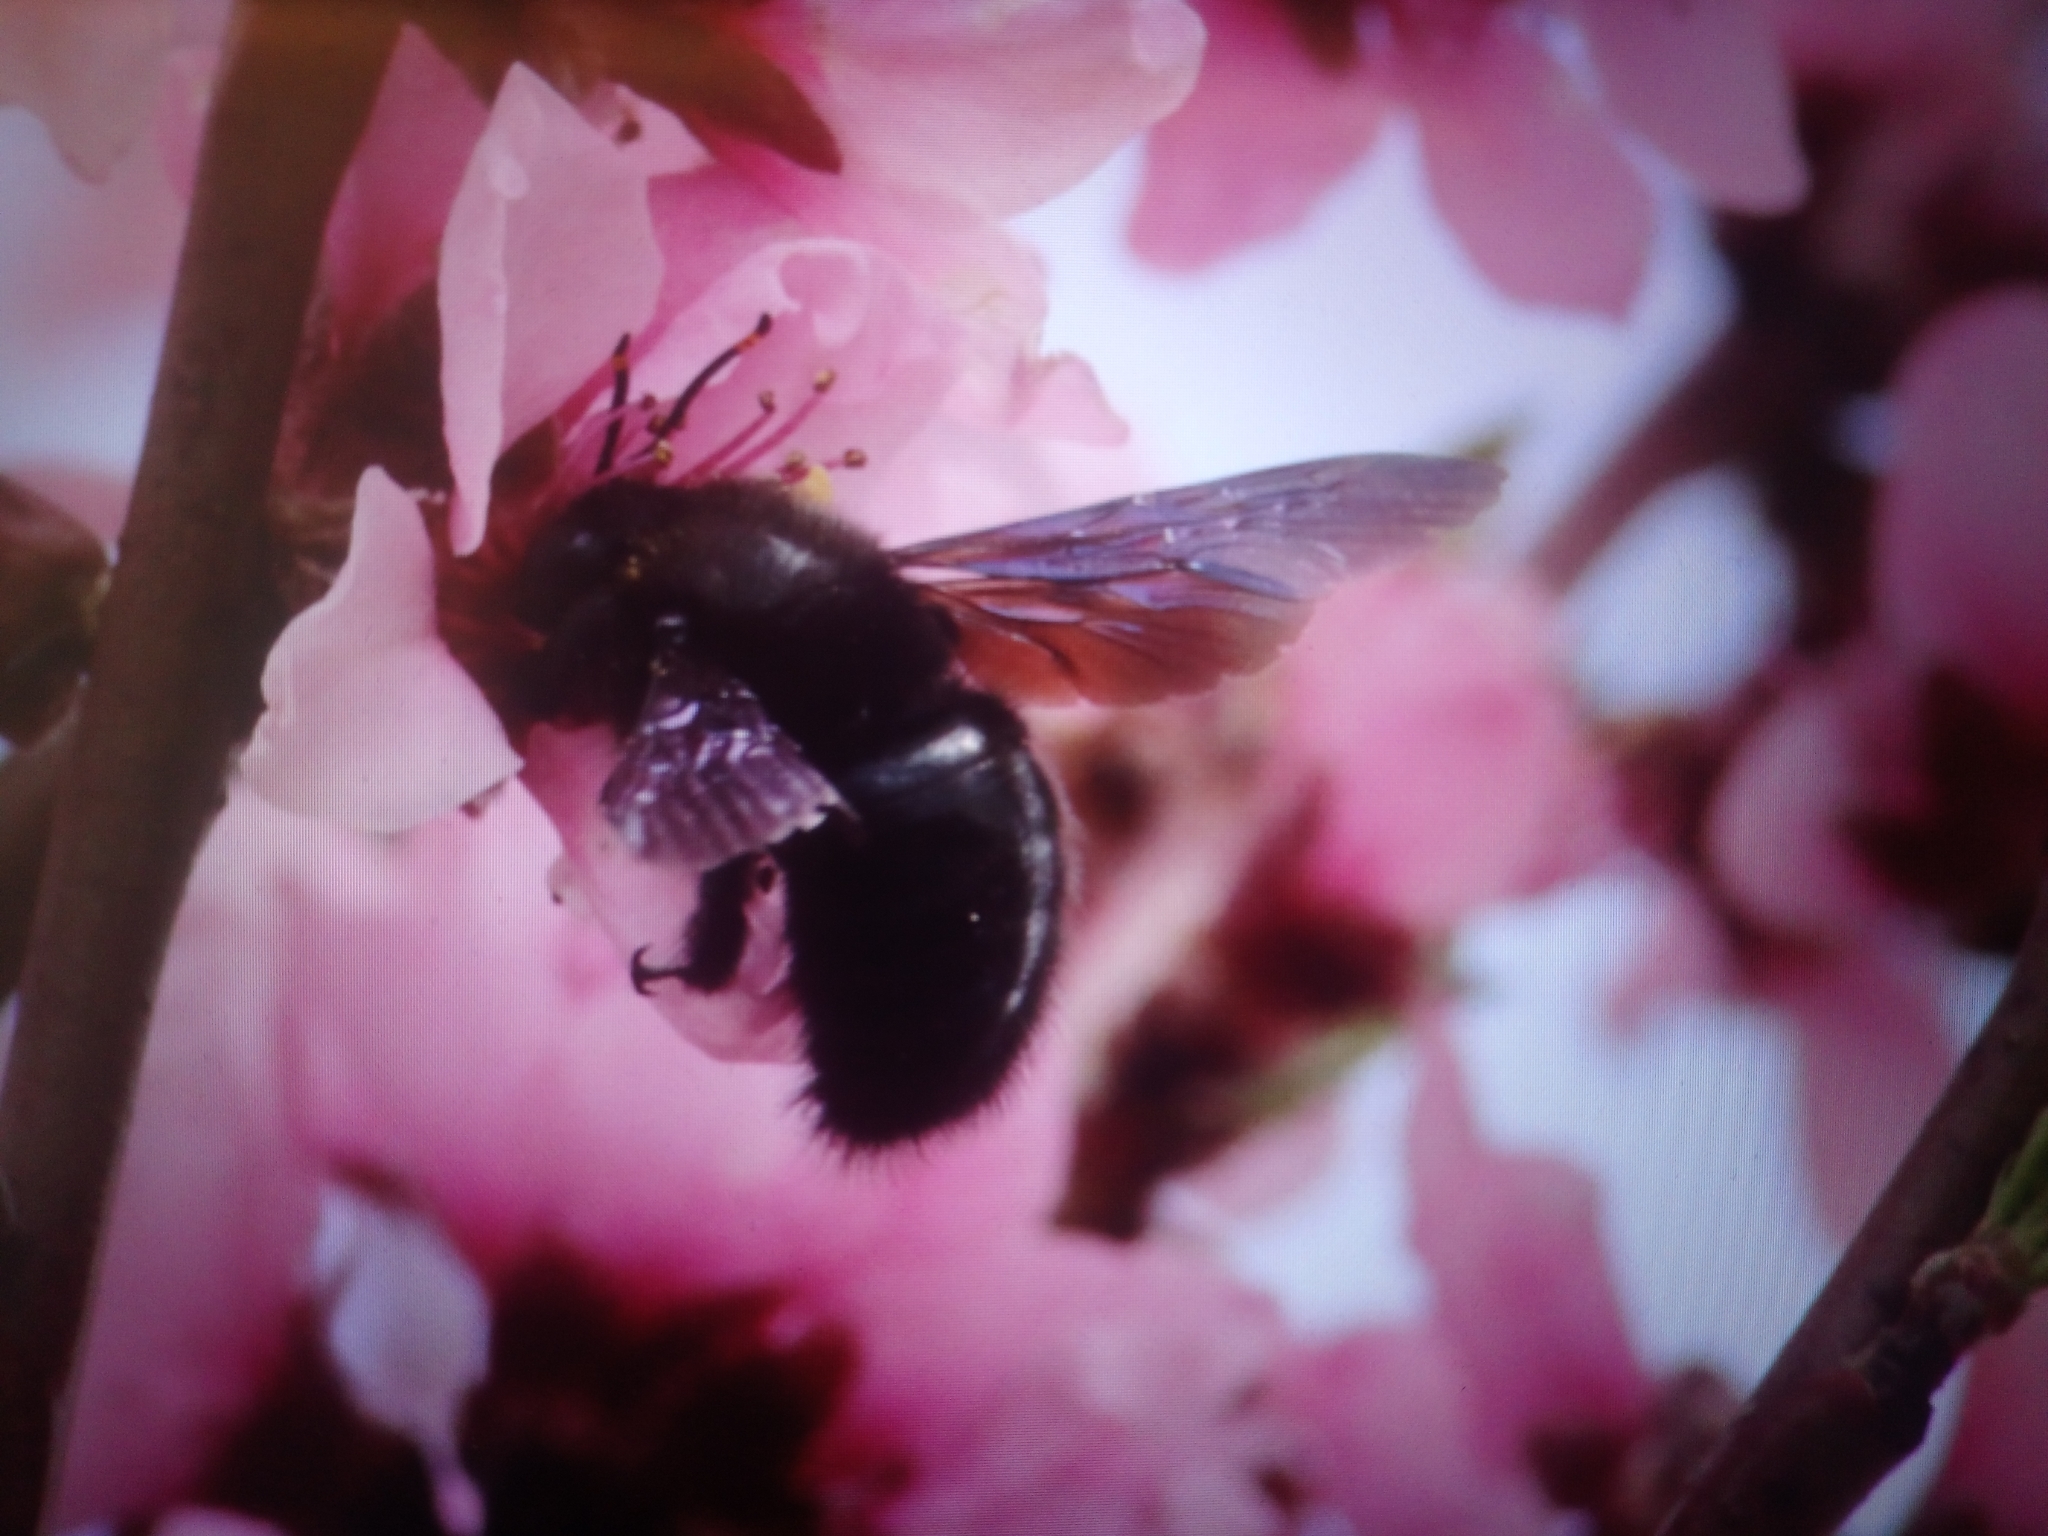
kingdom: Animalia
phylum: Arthropoda
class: Insecta
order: Hymenoptera
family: Apidae
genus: Xylocopa
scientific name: Xylocopa violacea
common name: Violet carpenter bee
